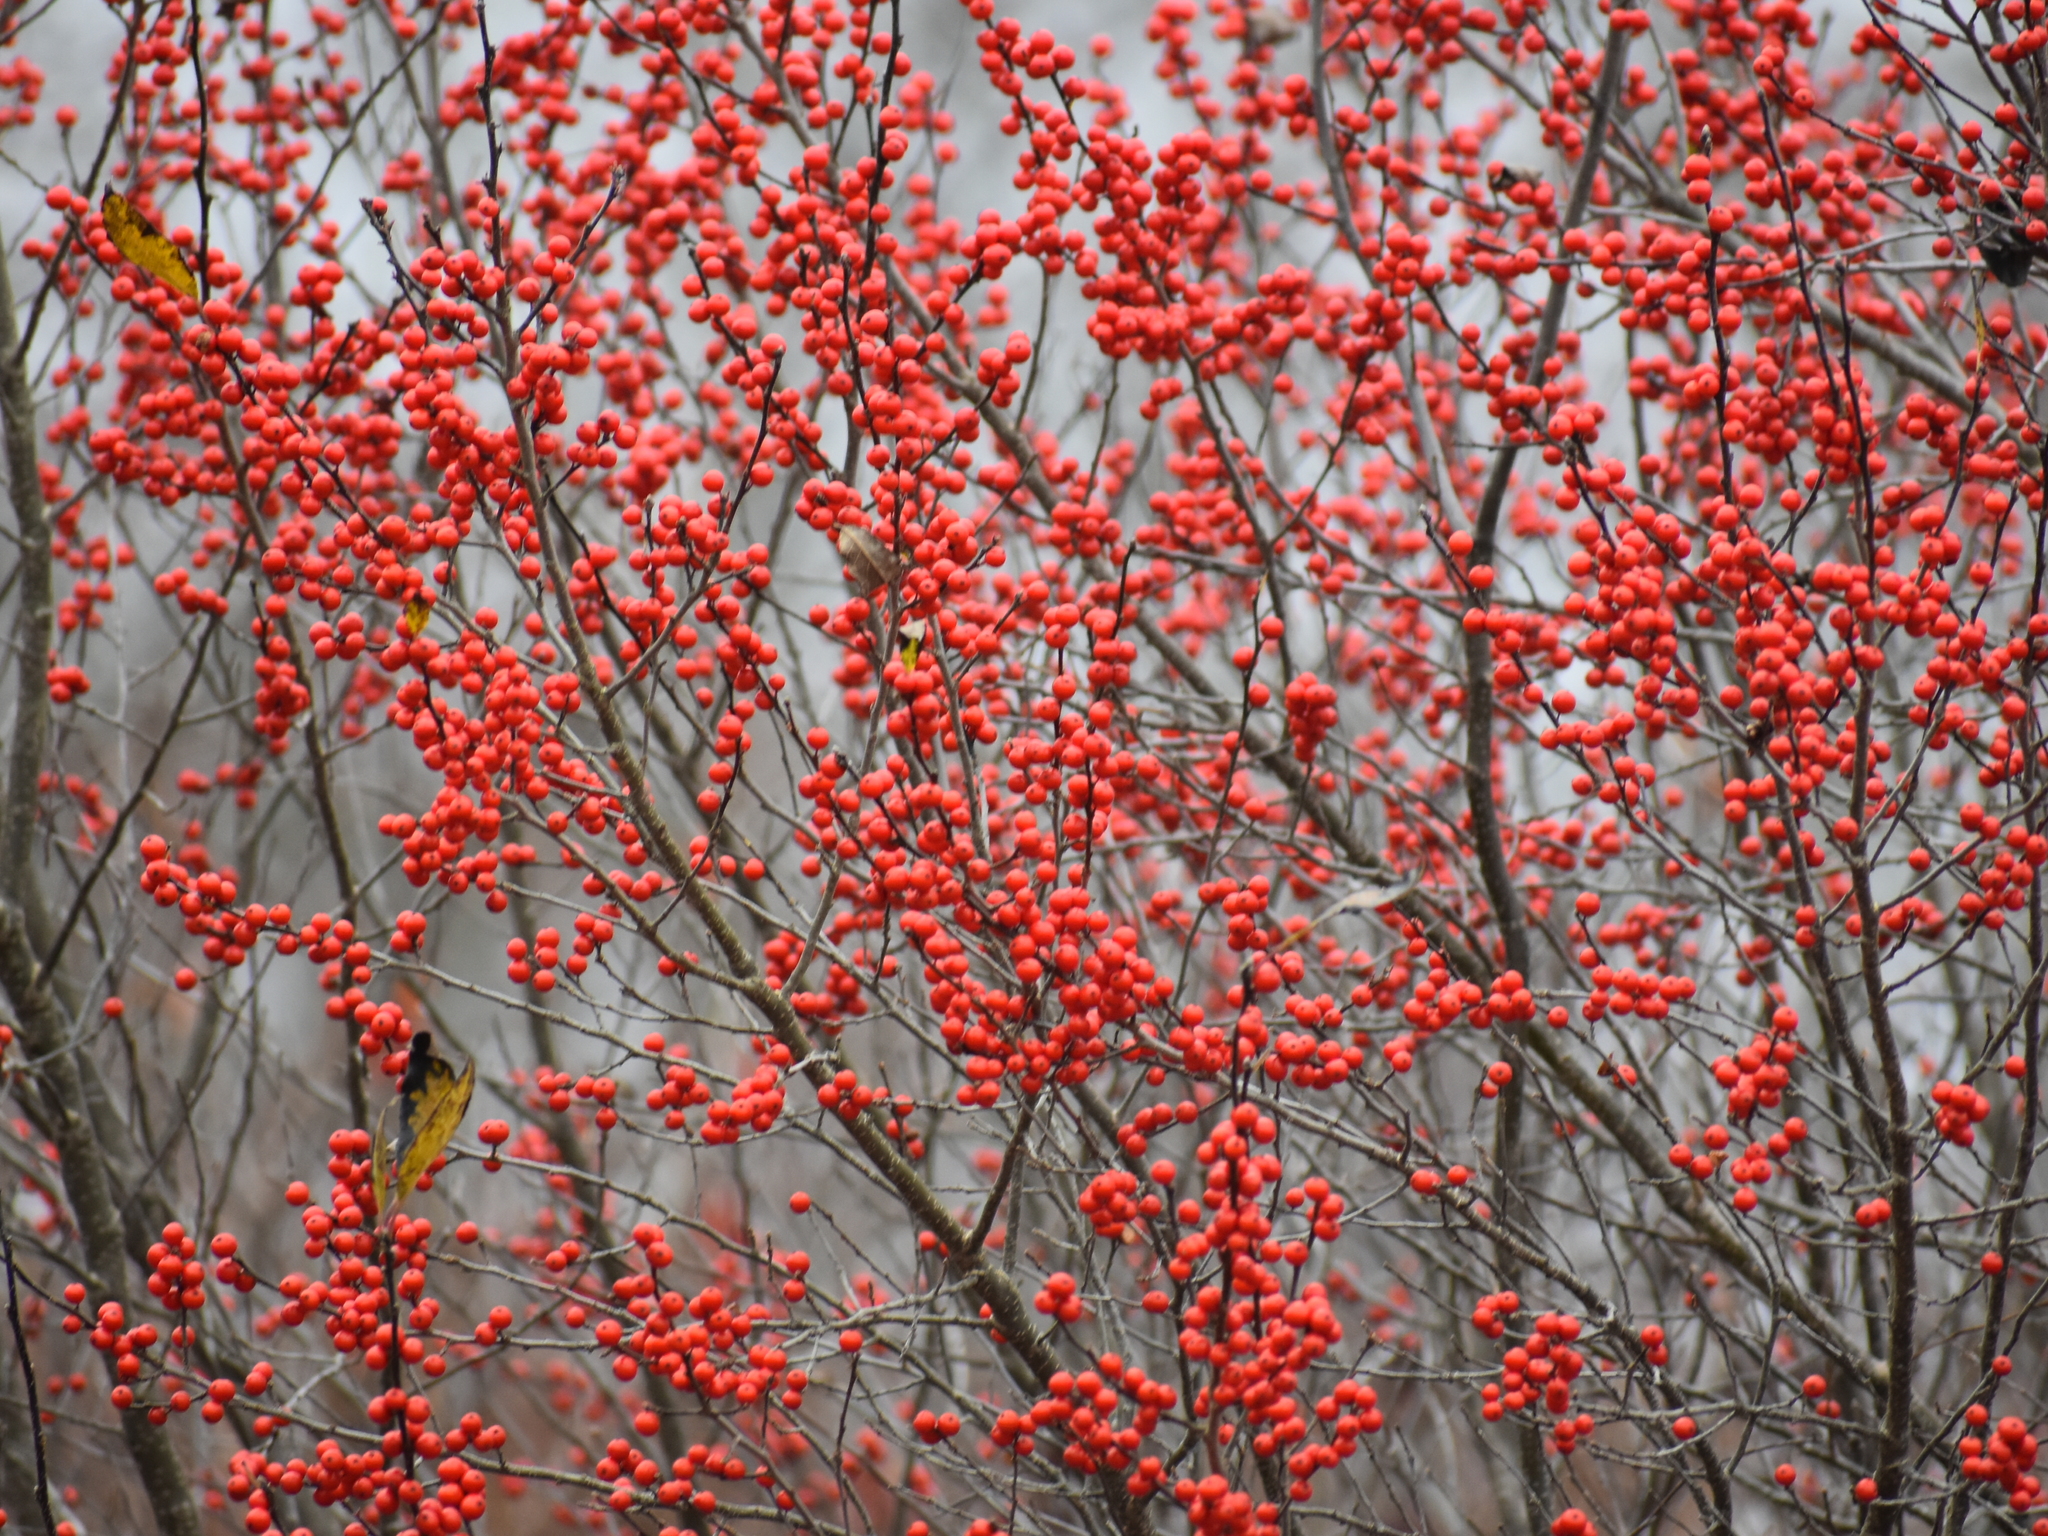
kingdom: Plantae
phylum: Tracheophyta
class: Magnoliopsida
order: Aquifoliales
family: Aquifoliaceae
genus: Ilex
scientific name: Ilex verticillata
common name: Virginia winterberry
